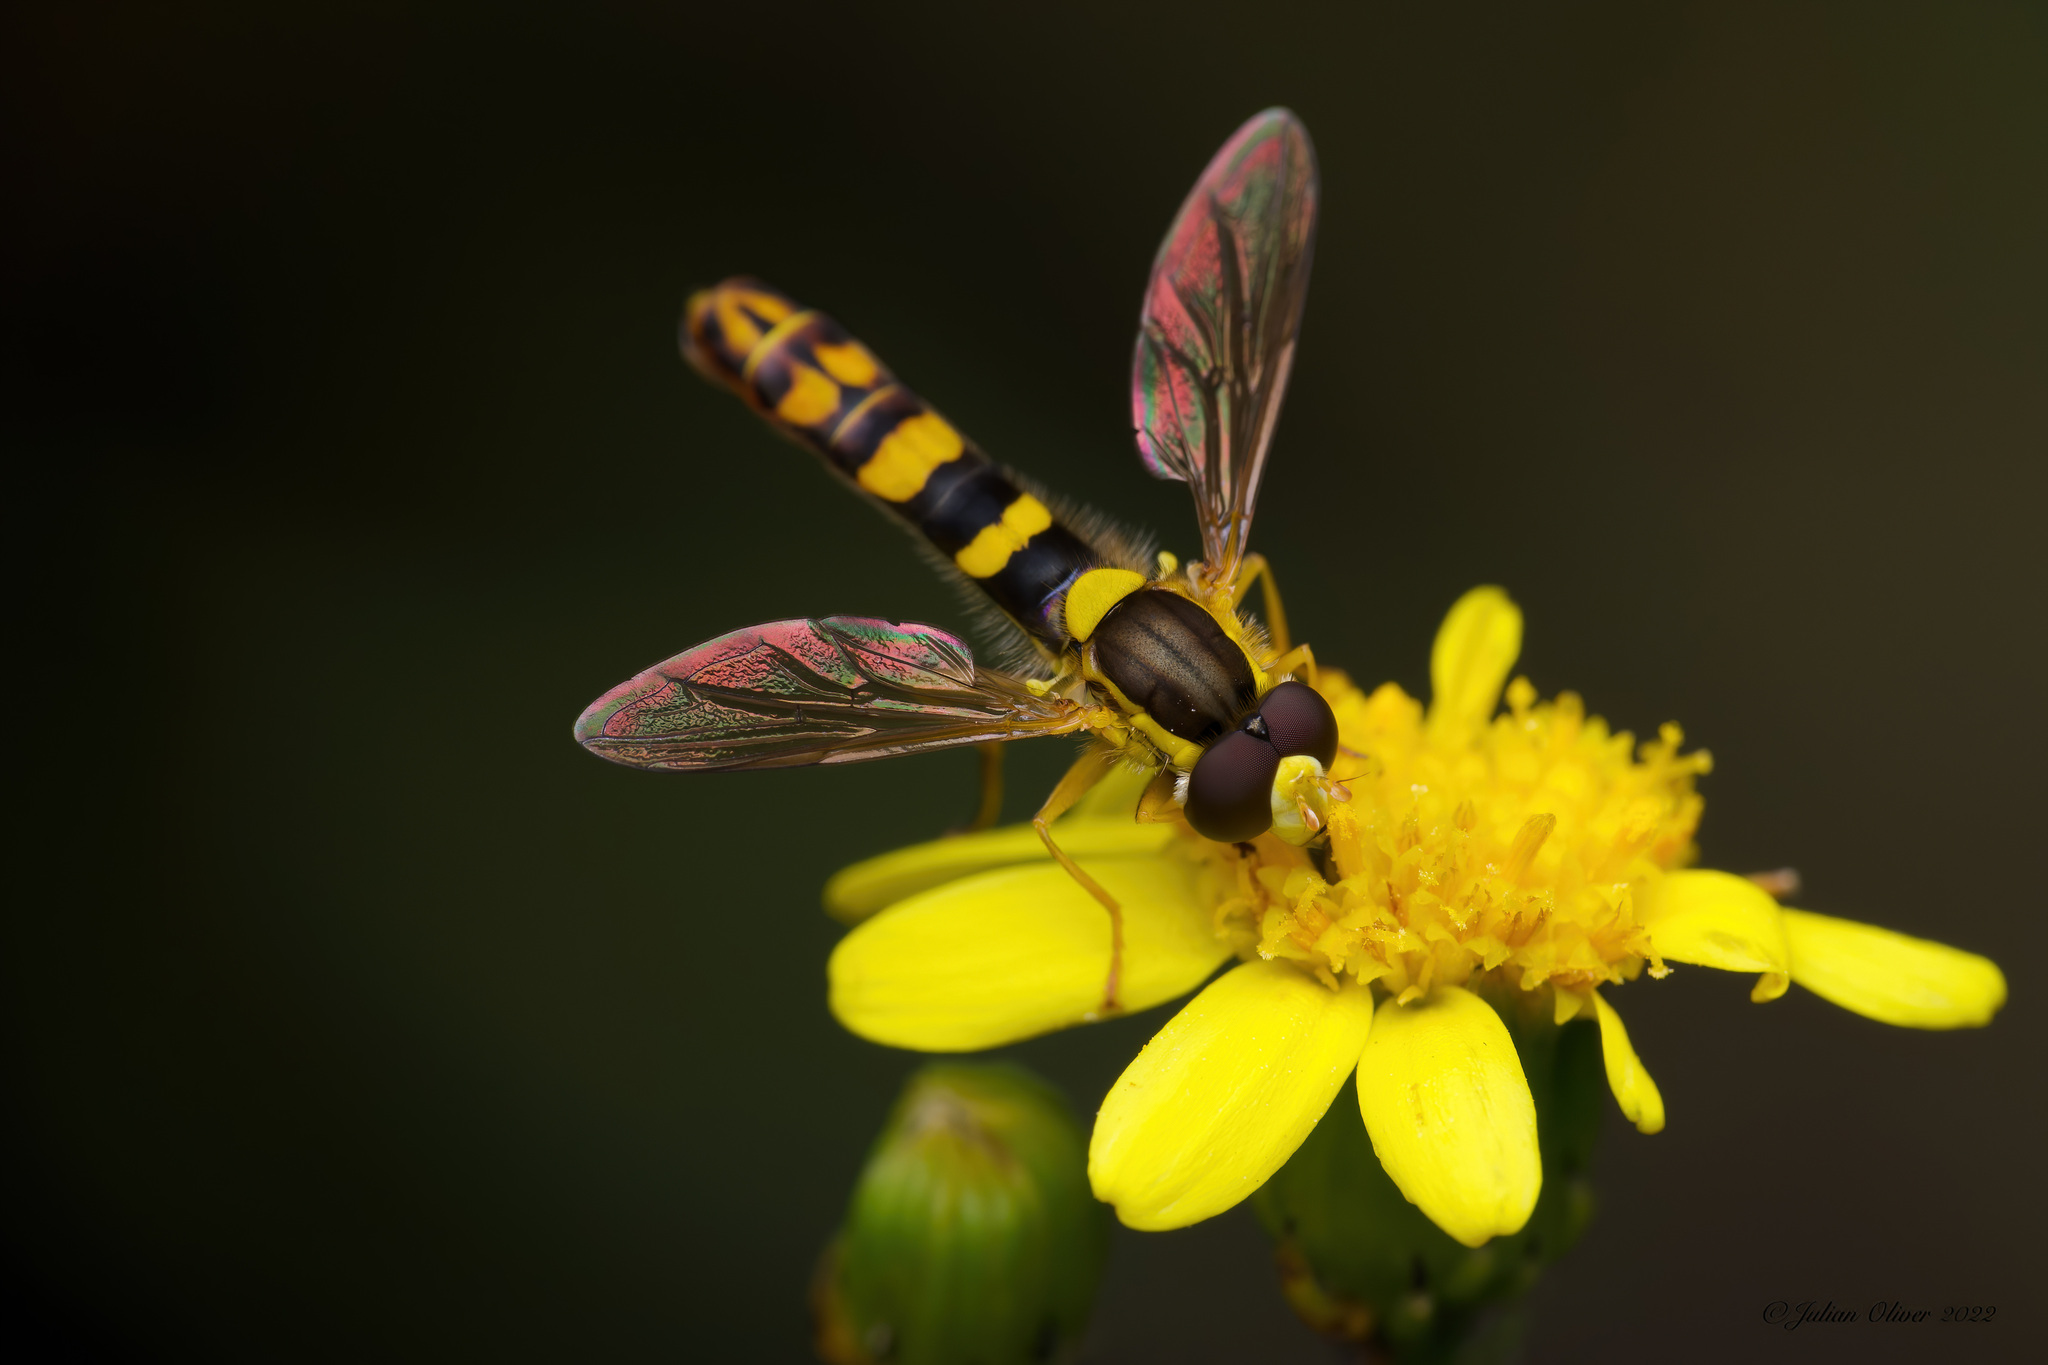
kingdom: Animalia
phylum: Arthropoda
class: Insecta
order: Diptera
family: Syrphidae
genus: Sphaerophoria
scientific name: Sphaerophoria
